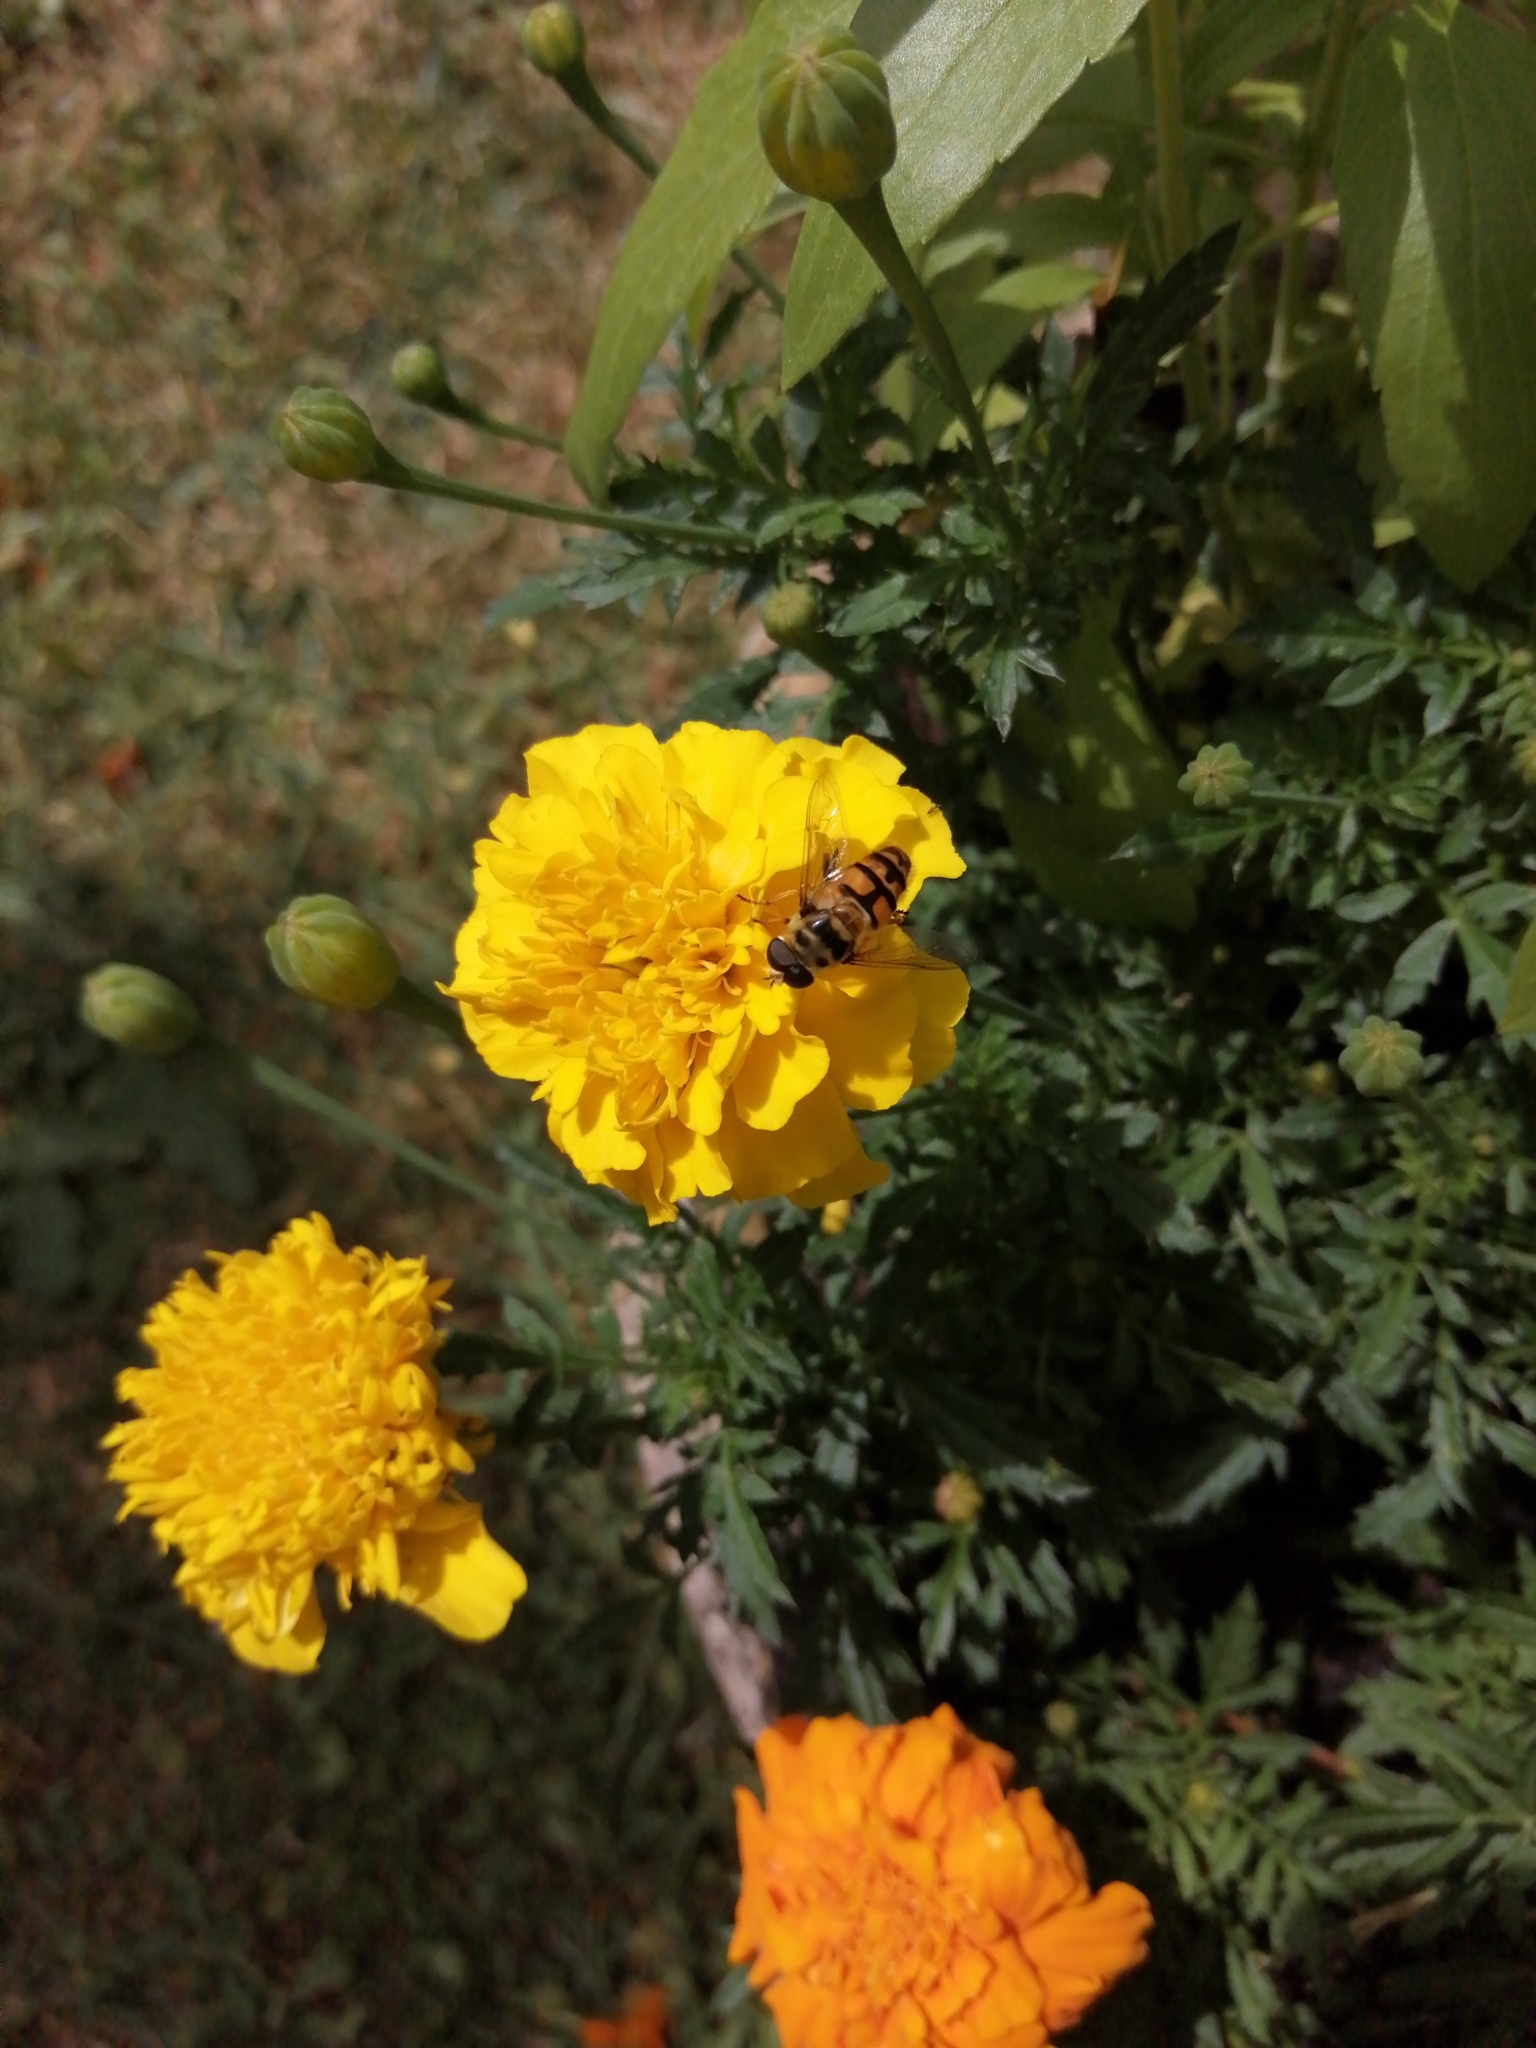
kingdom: Animalia
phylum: Arthropoda
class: Insecta
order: Diptera
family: Syrphidae
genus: Myathropa
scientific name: Myathropa florea
